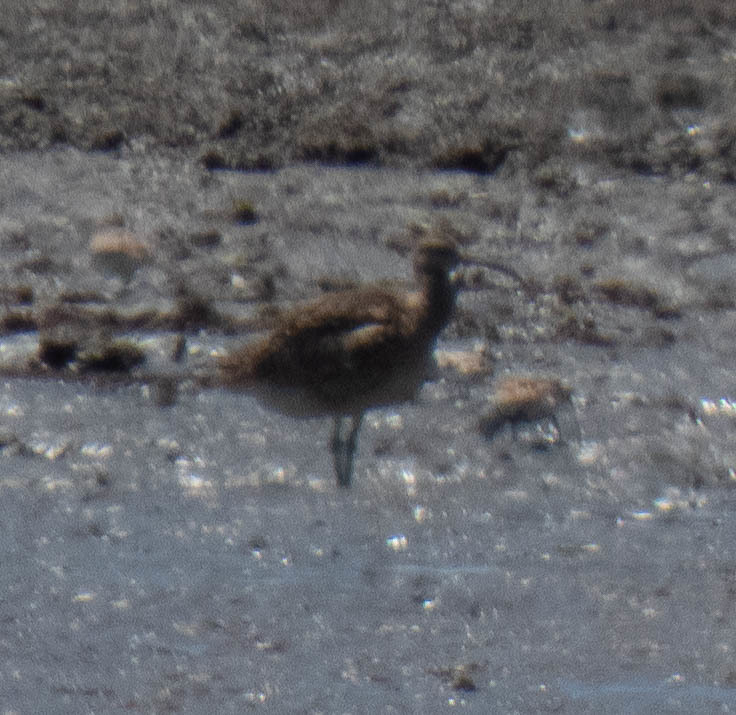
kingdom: Animalia
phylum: Chordata
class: Aves
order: Charadriiformes
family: Scolopacidae
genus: Numenius
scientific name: Numenius phaeopus
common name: Whimbrel
